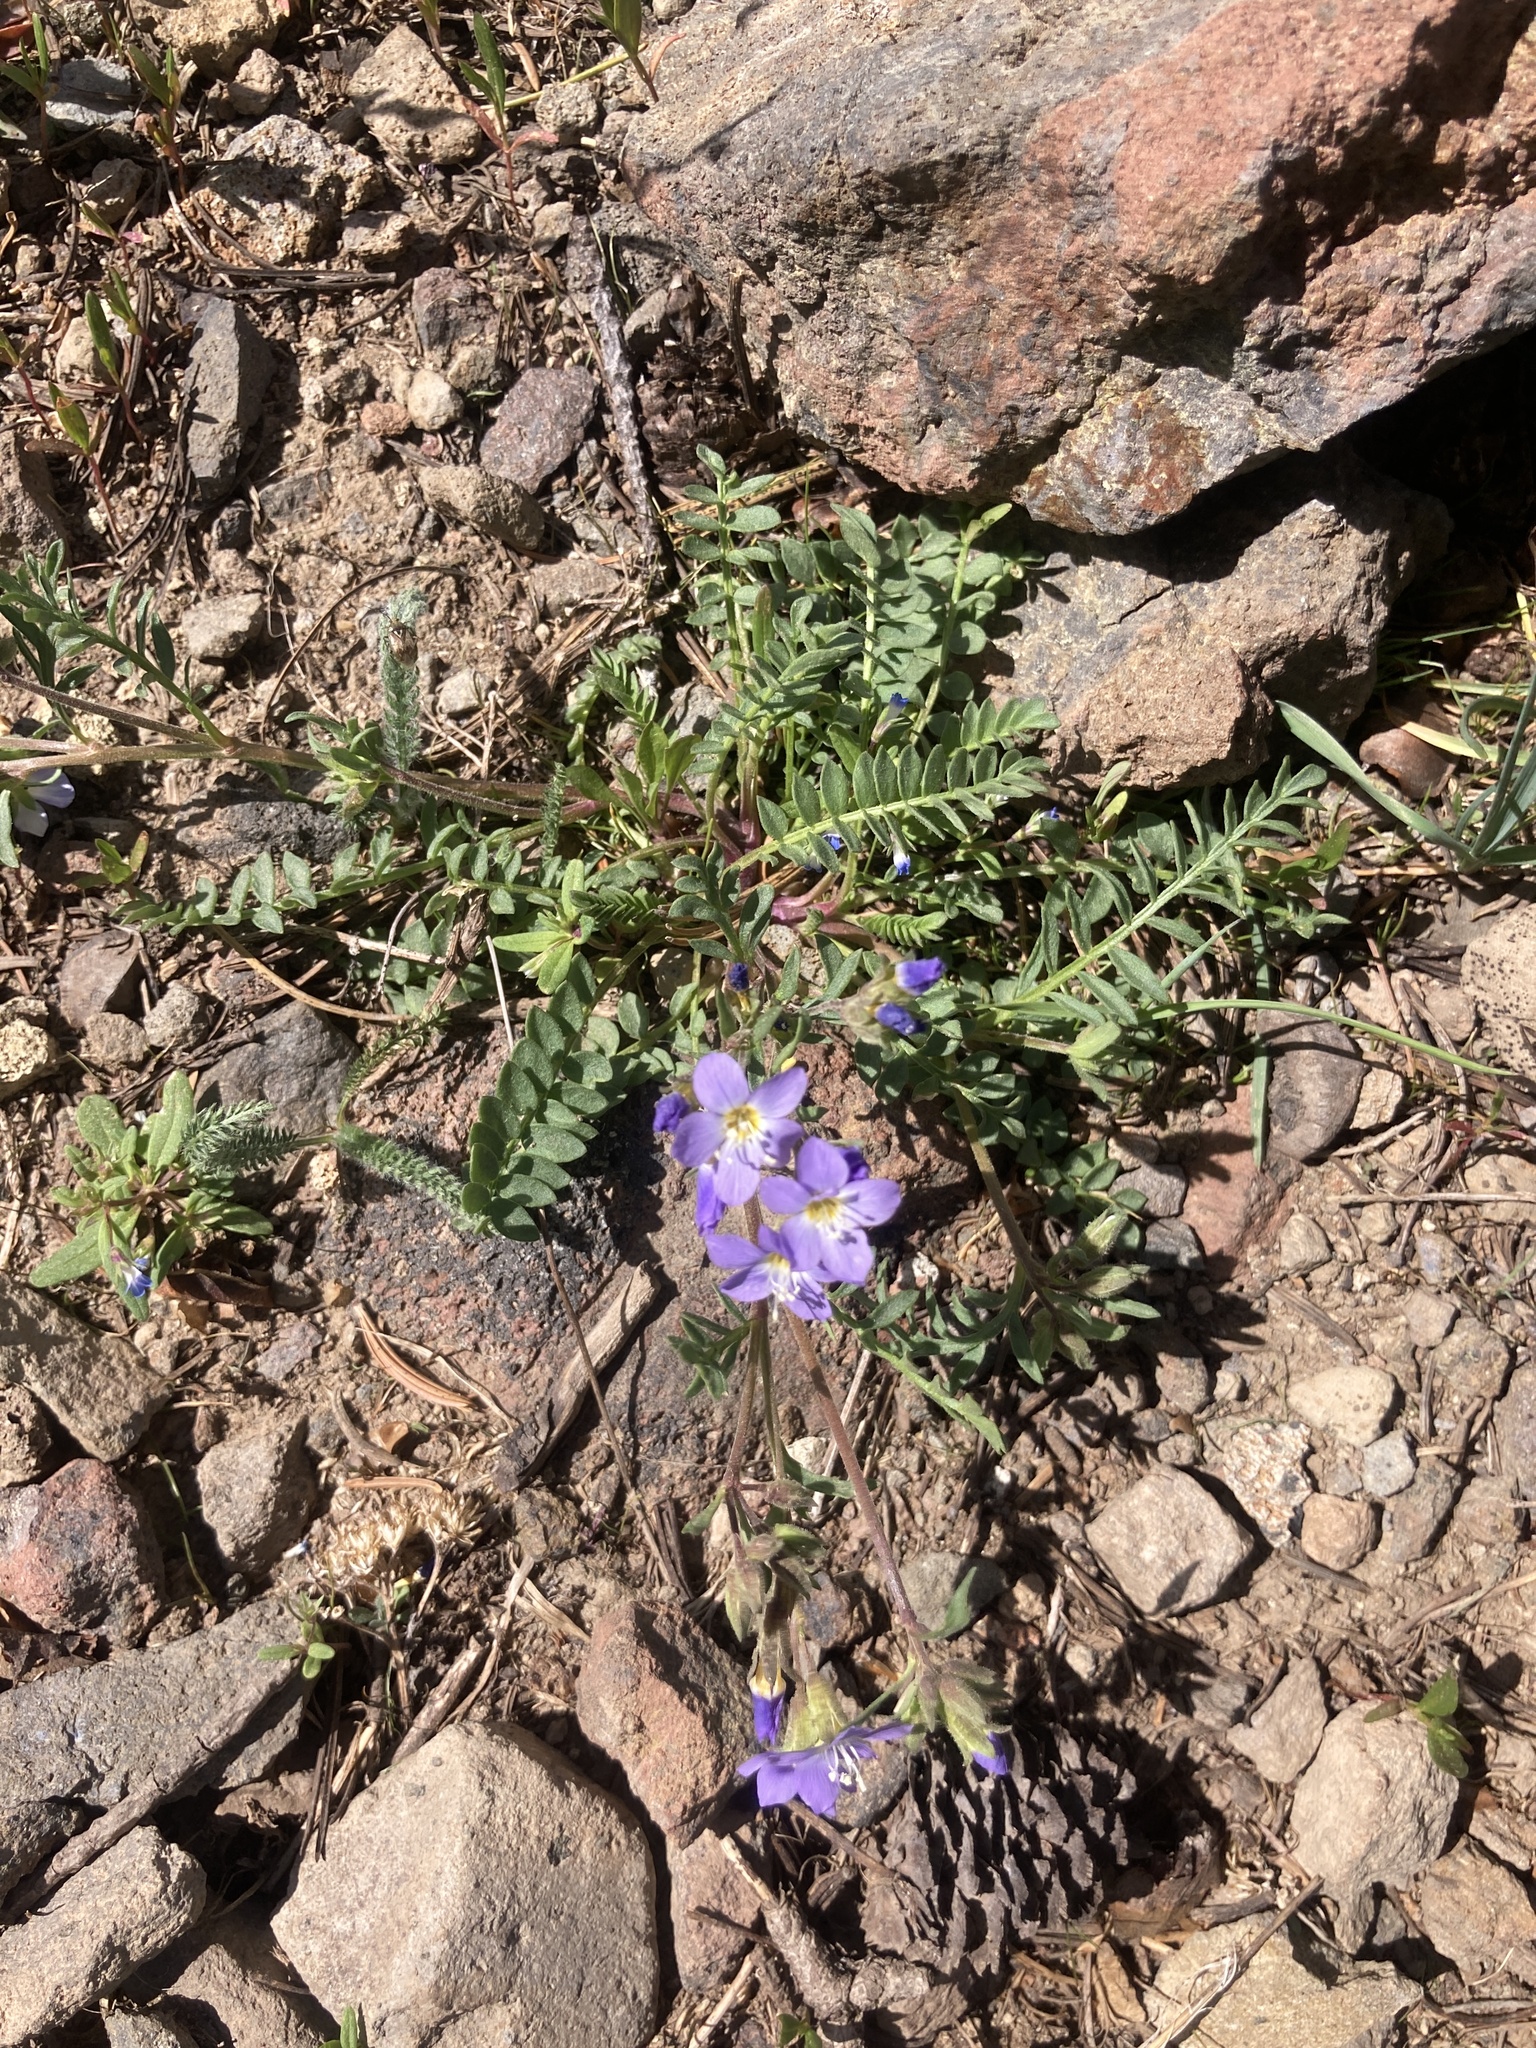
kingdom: Plantae
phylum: Tracheophyta
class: Magnoliopsida
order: Ericales
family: Polemoniaceae
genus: Polemonium
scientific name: Polemonium pulcherrimum
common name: Short jacob's-ladder
